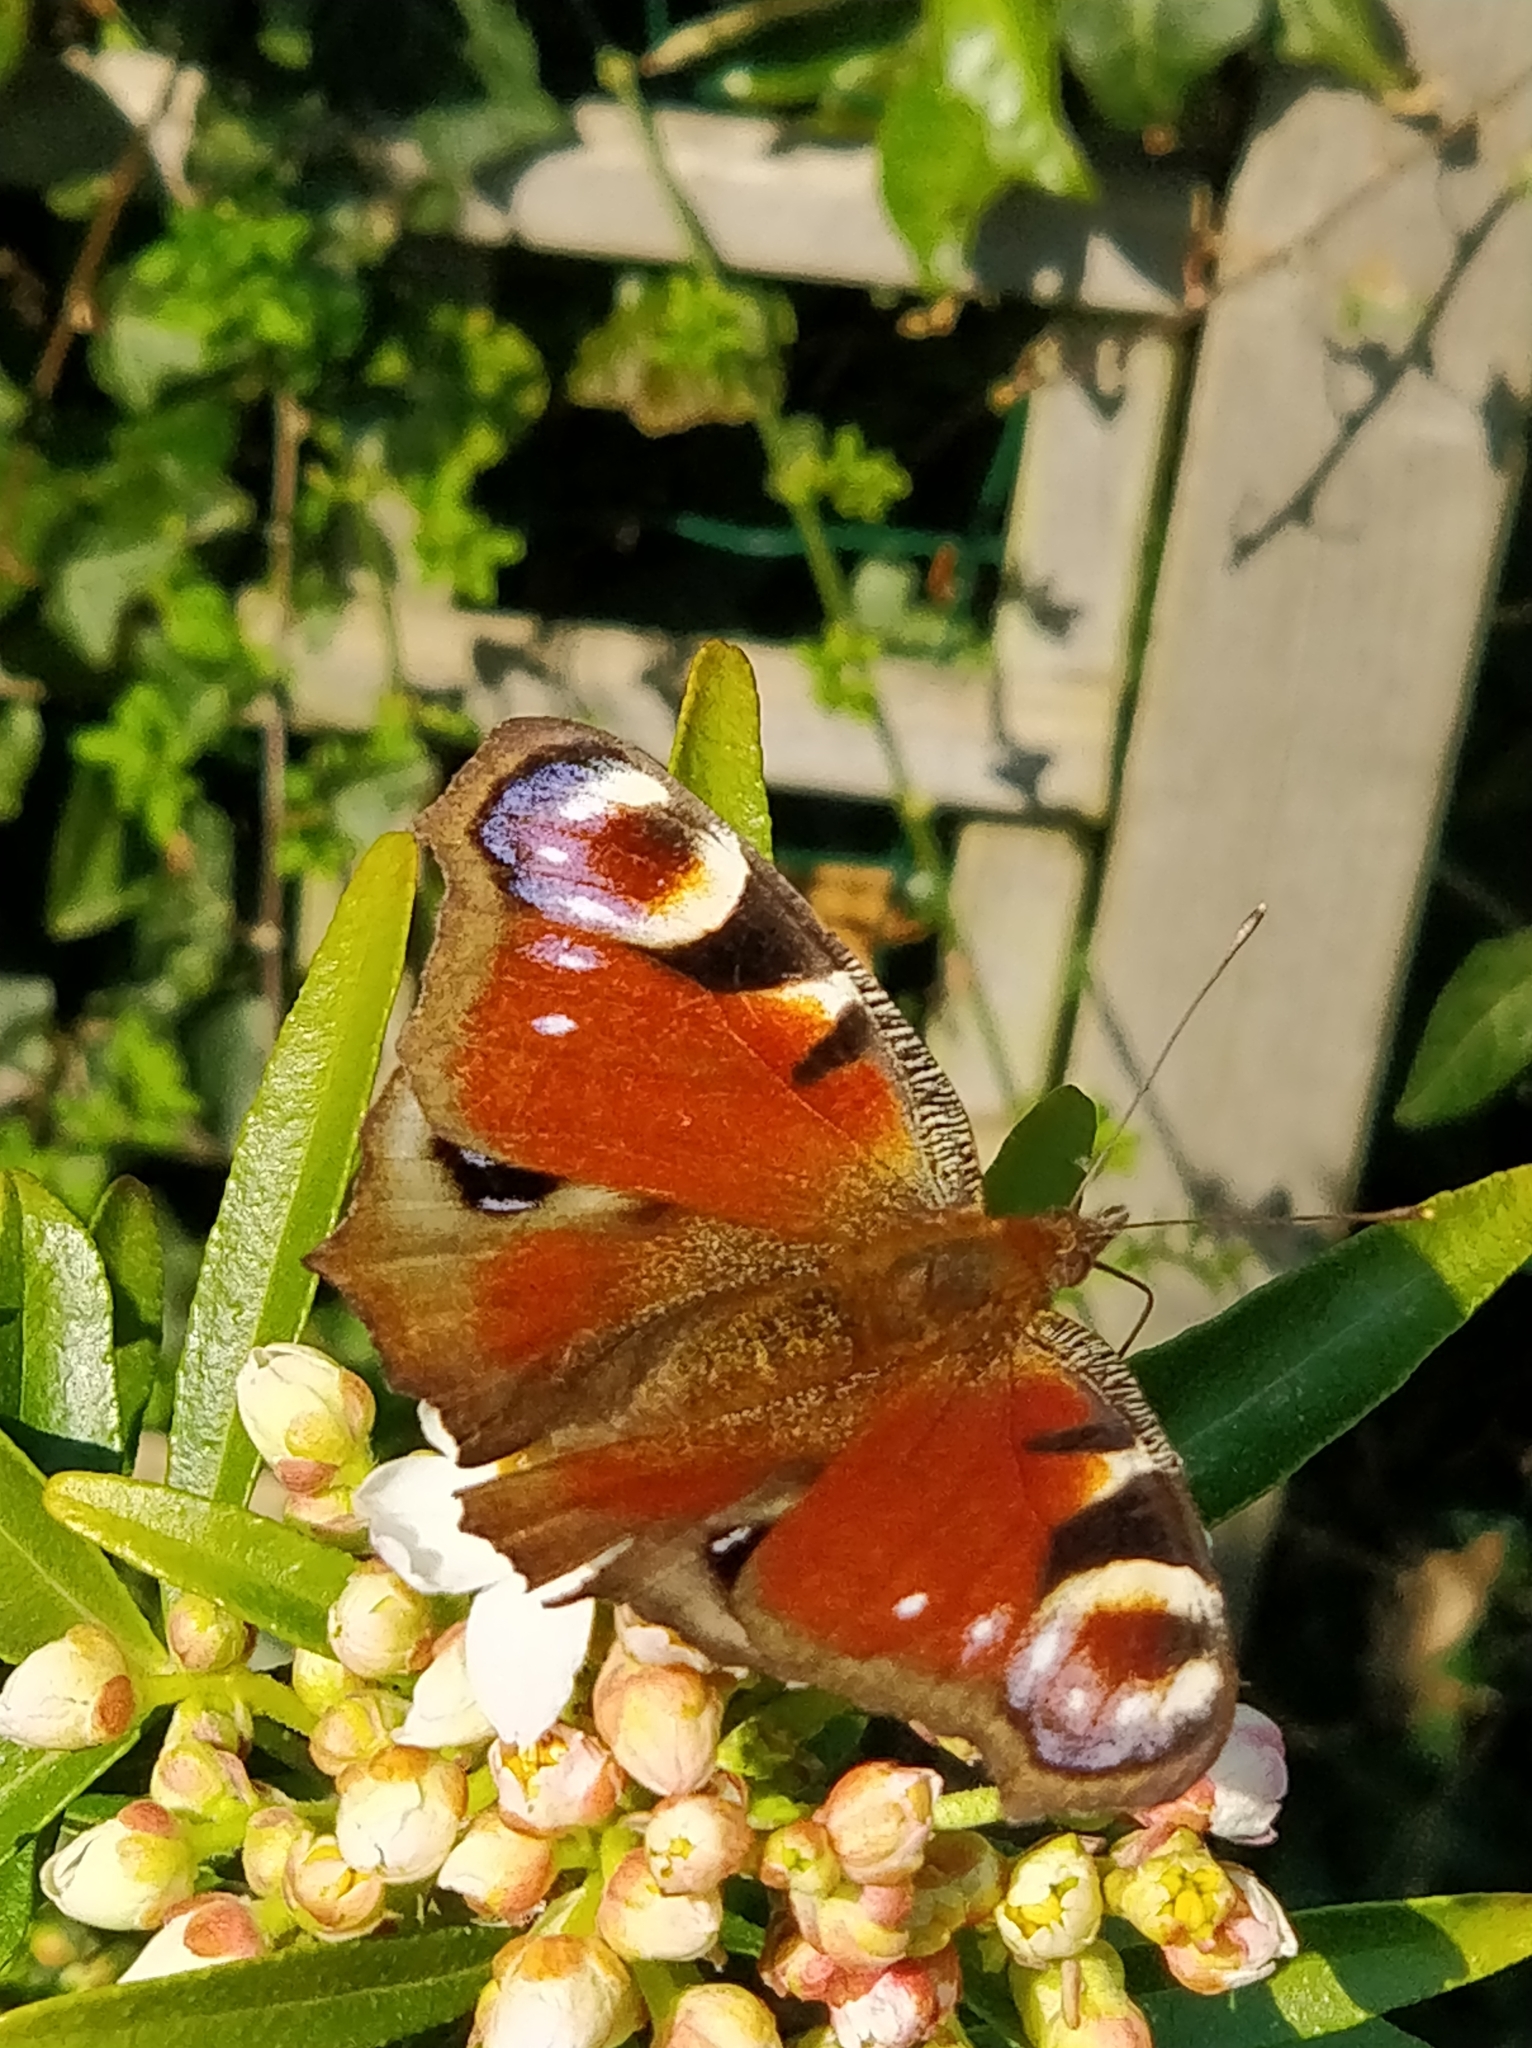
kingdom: Animalia
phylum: Arthropoda
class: Insecta
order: Lepidoptera
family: Nymphalidae
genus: Aglais
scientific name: Aglais io
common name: Peacock
